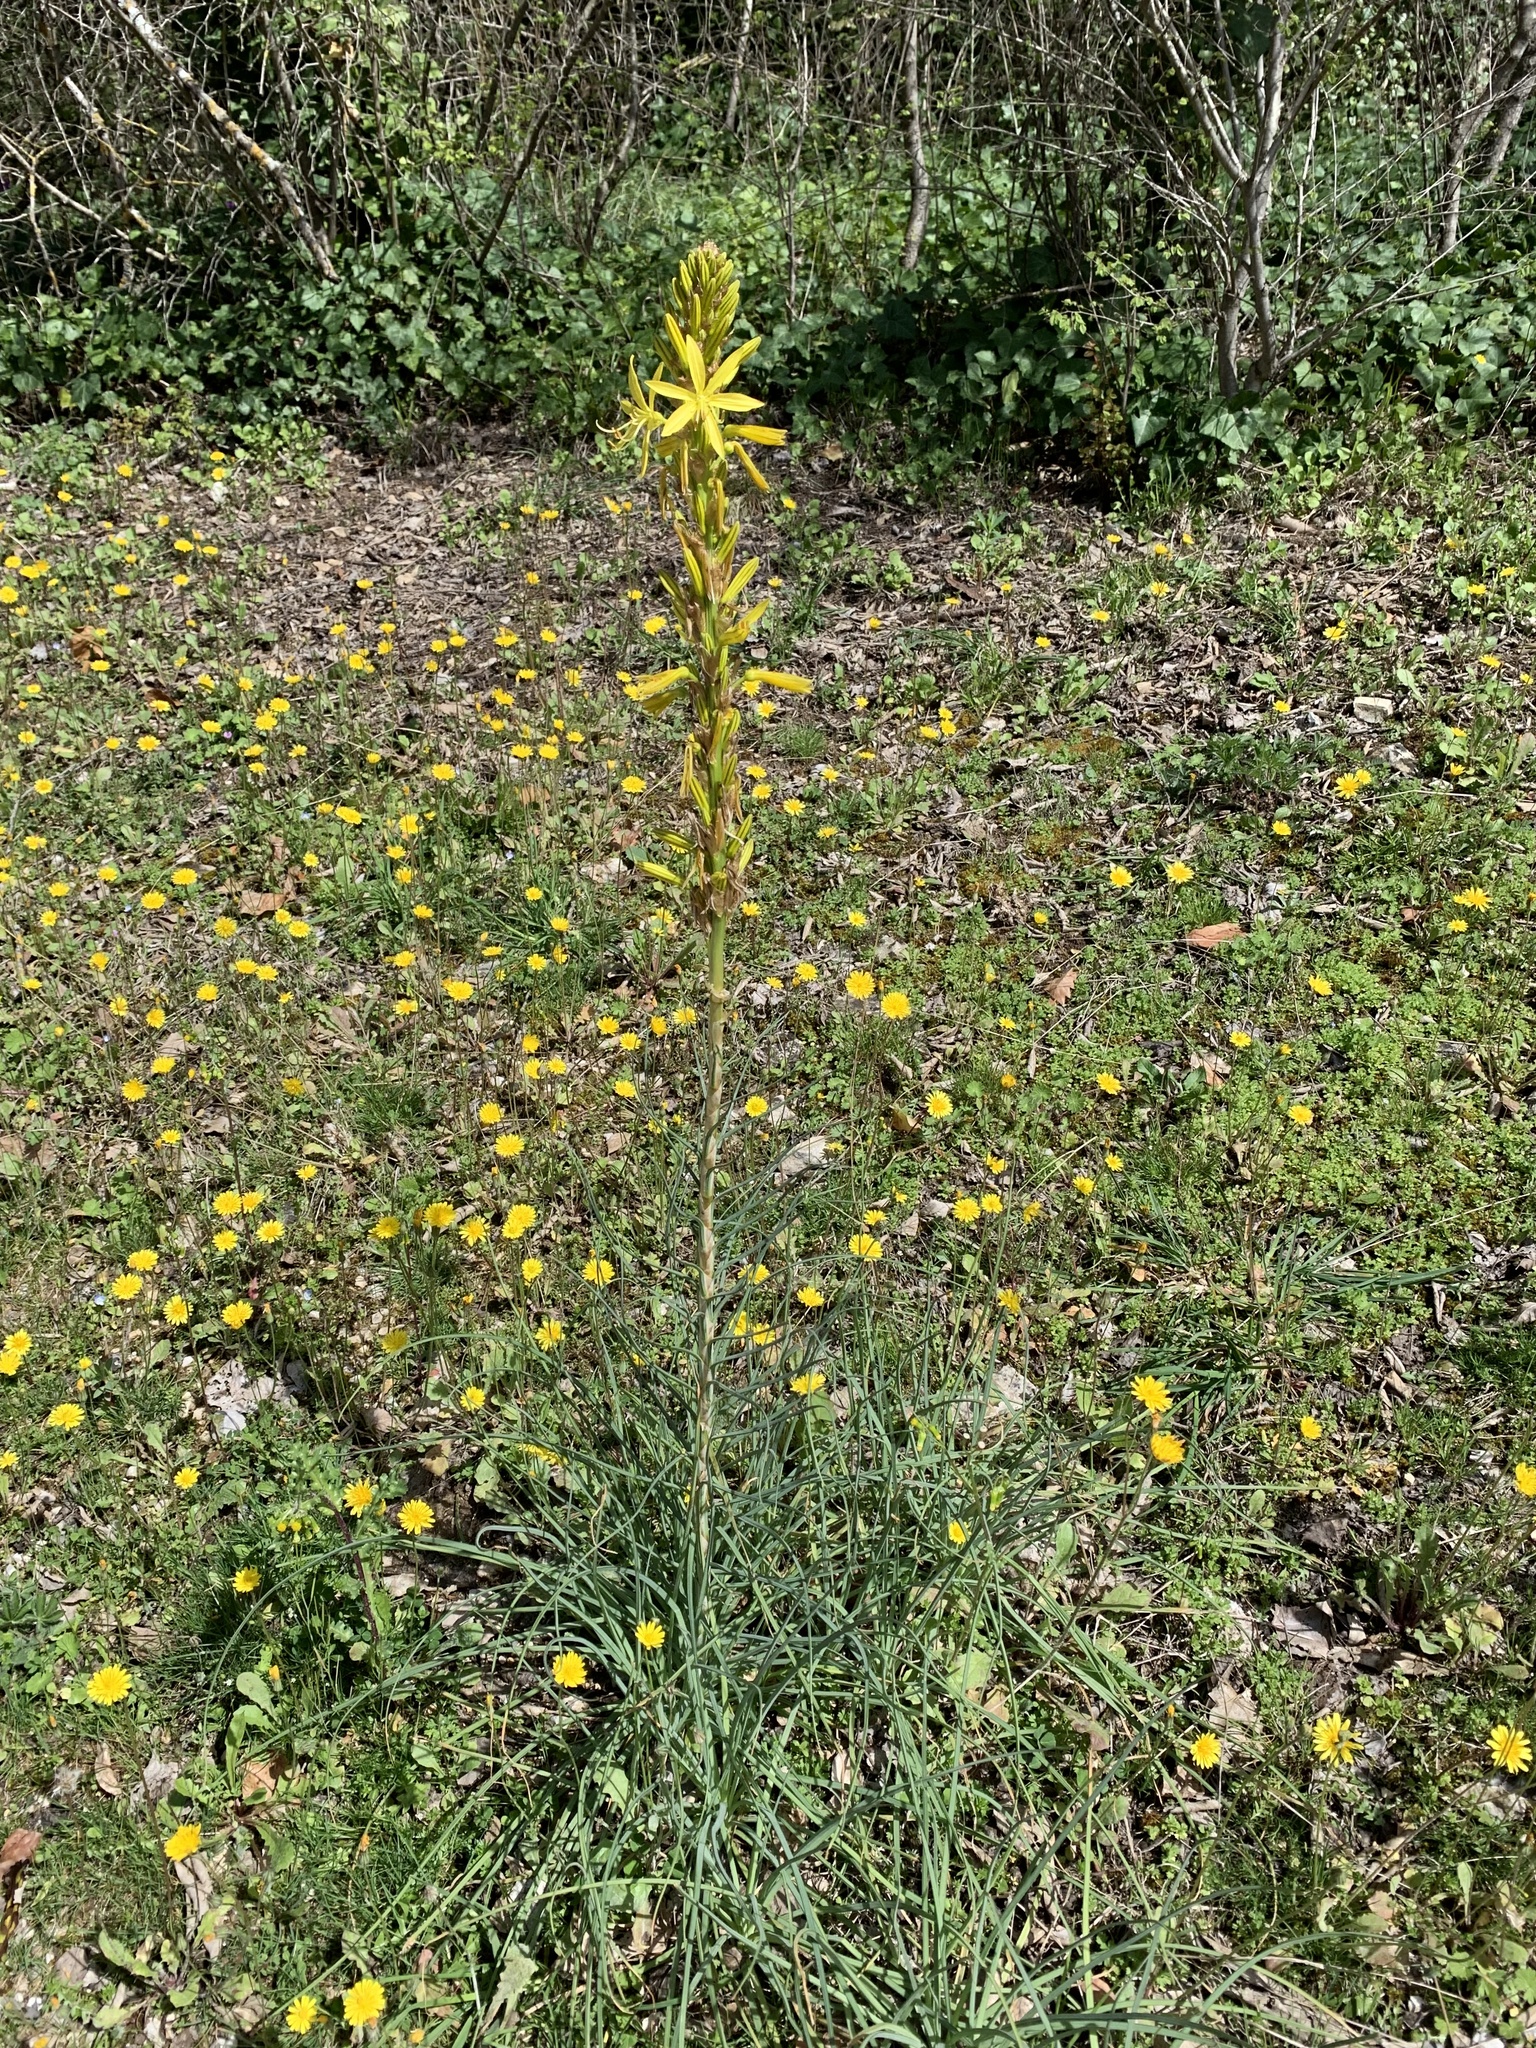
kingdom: Plantae
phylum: Tracheophyta
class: Liliopsida
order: Asparagales
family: Asphodelaceae
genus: Asphodeline
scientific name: Asphodeline lutea
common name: Yellow asphodel
